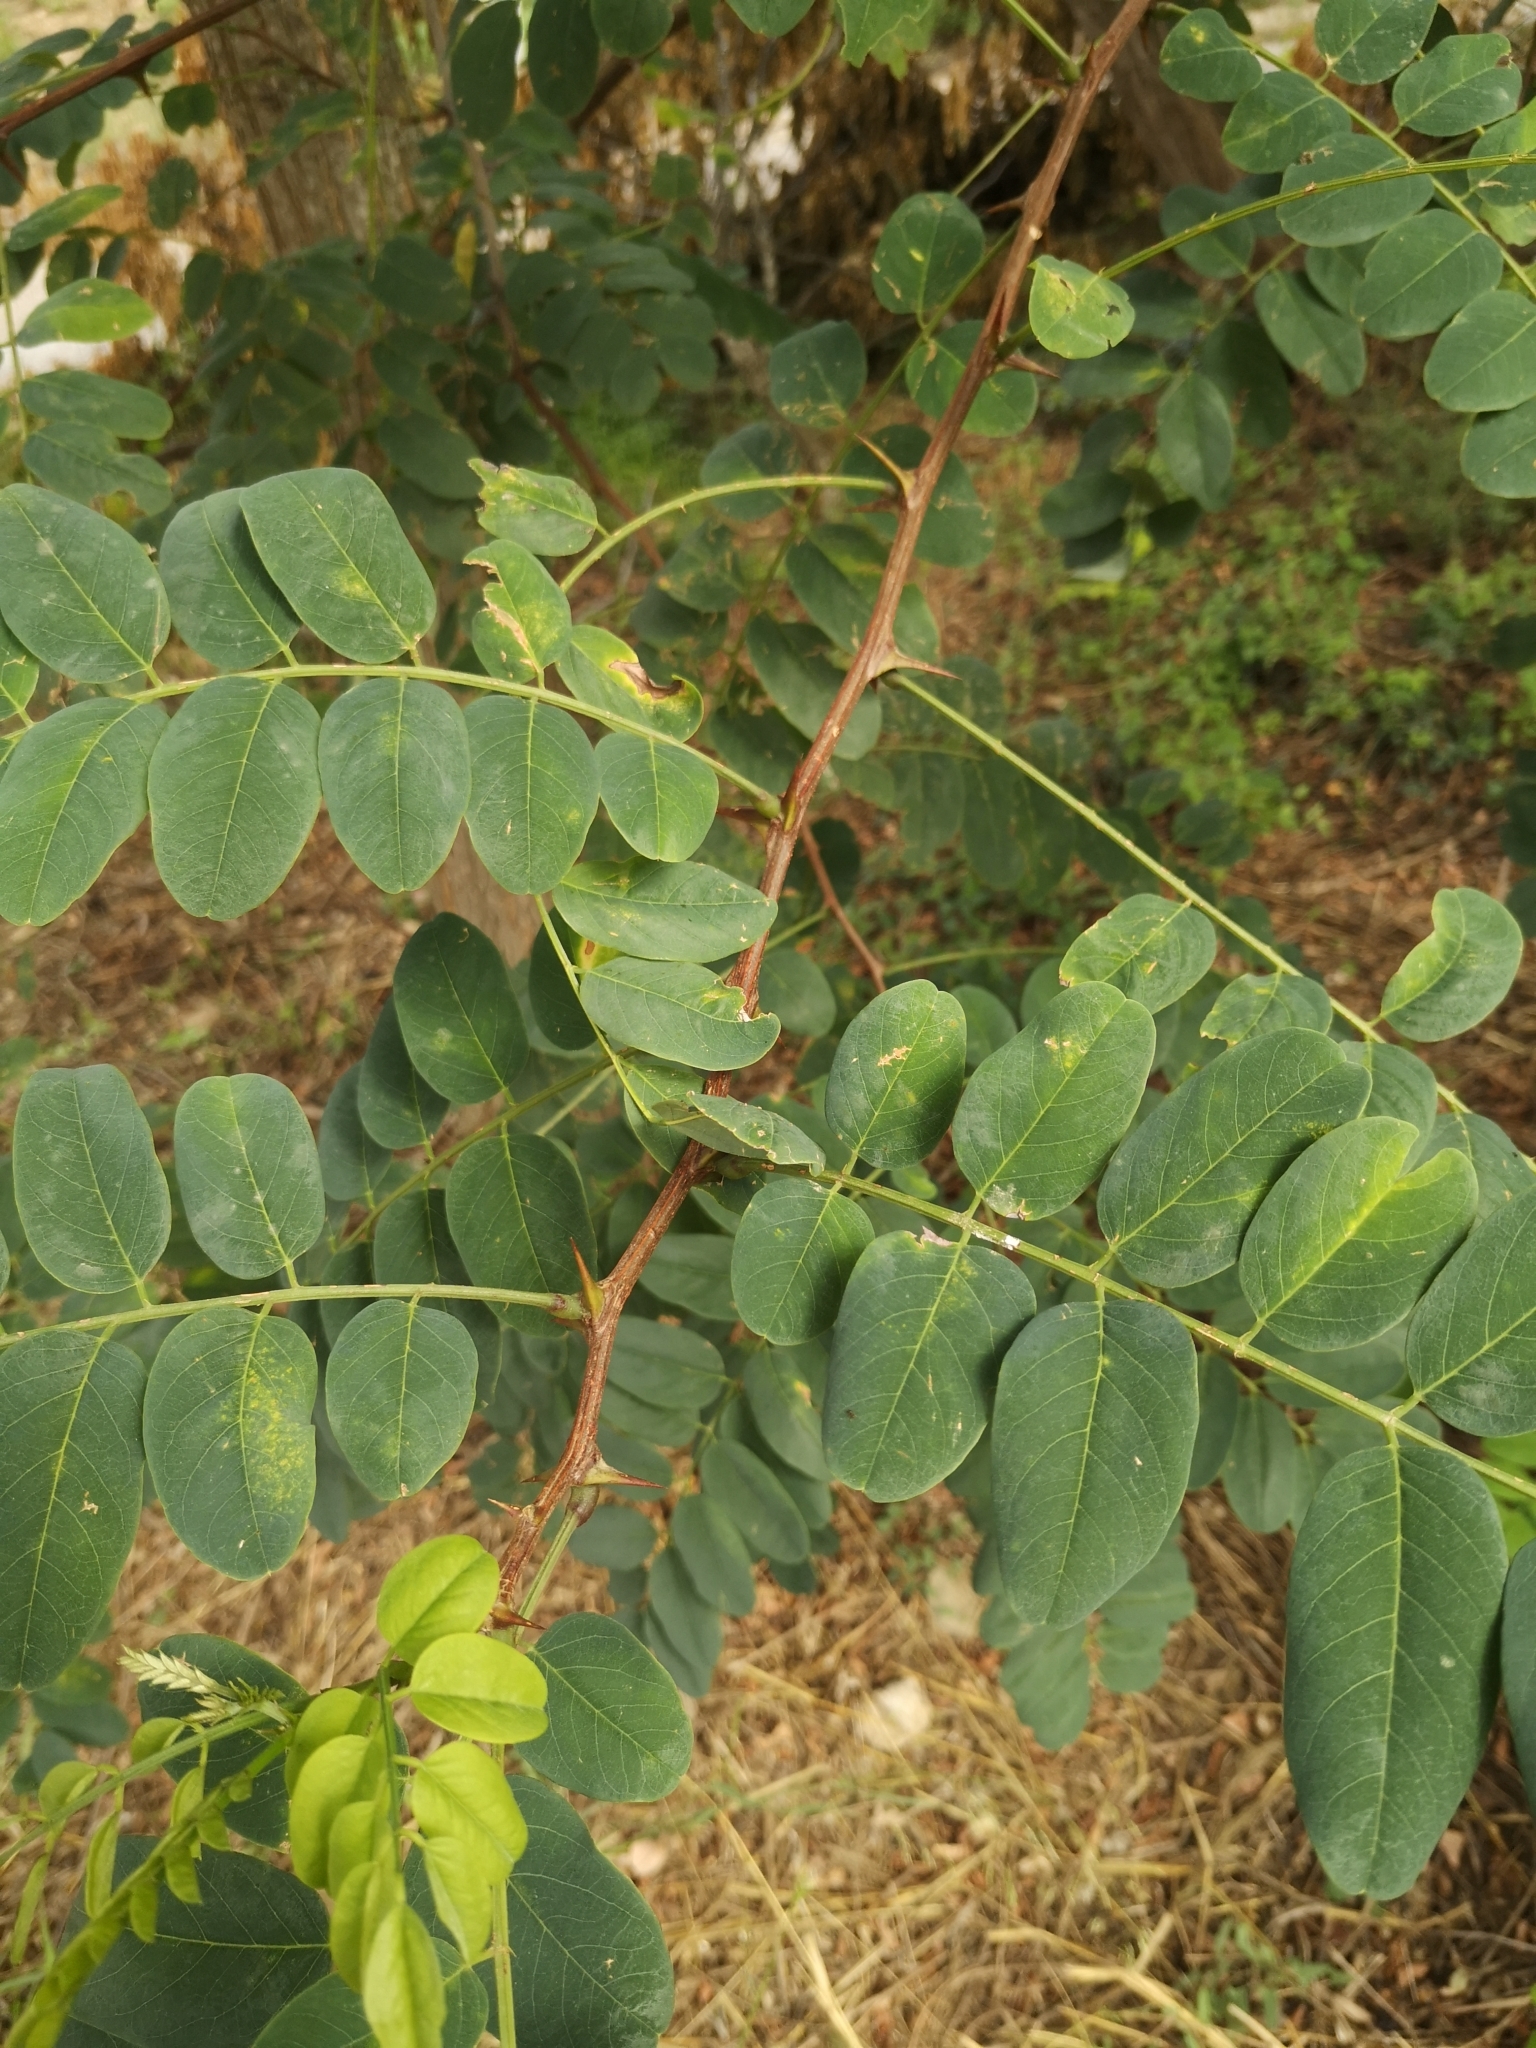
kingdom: Plantae
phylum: Tracheophyta
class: Magnoliopsida
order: Fabales
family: Fabaceae
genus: Robinia
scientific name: Robinia pseudoacacia
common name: Black locust
